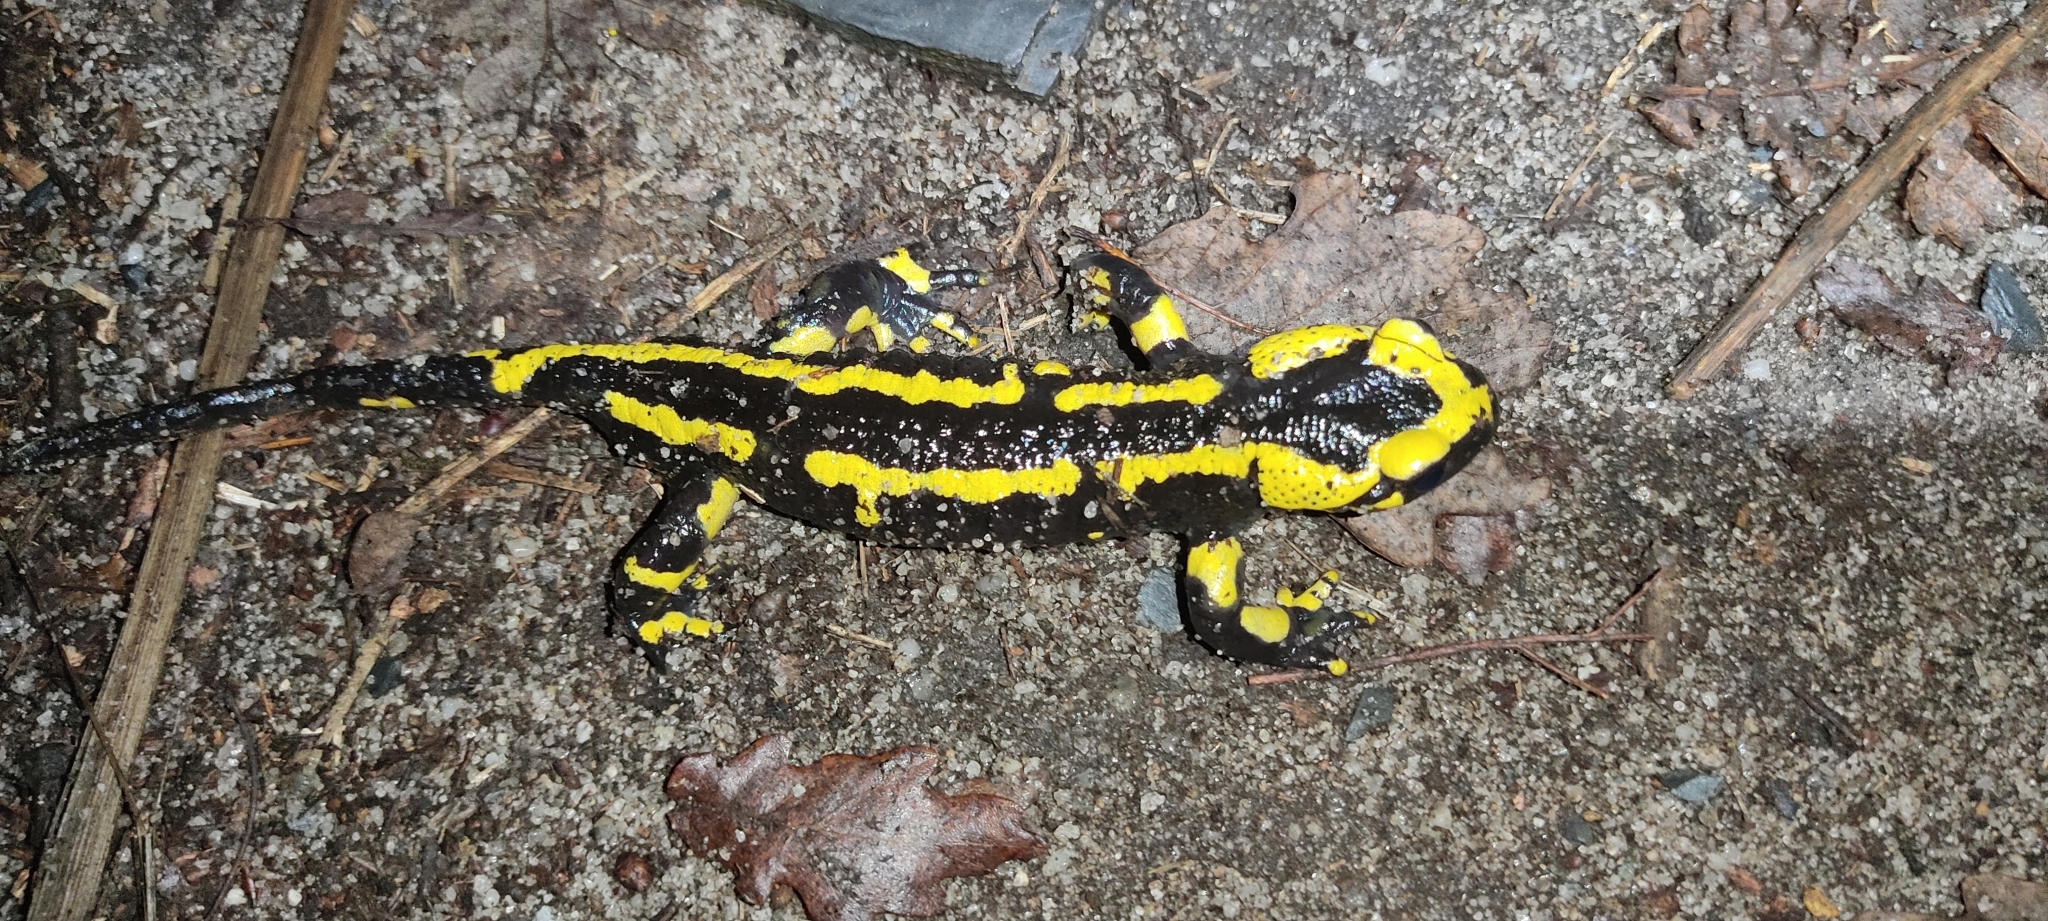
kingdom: Animalia
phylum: Chordata
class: Amphibia
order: Caudata
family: Salamandridae
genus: Salamandra
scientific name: Salamandra salamandra
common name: Fire salamander
